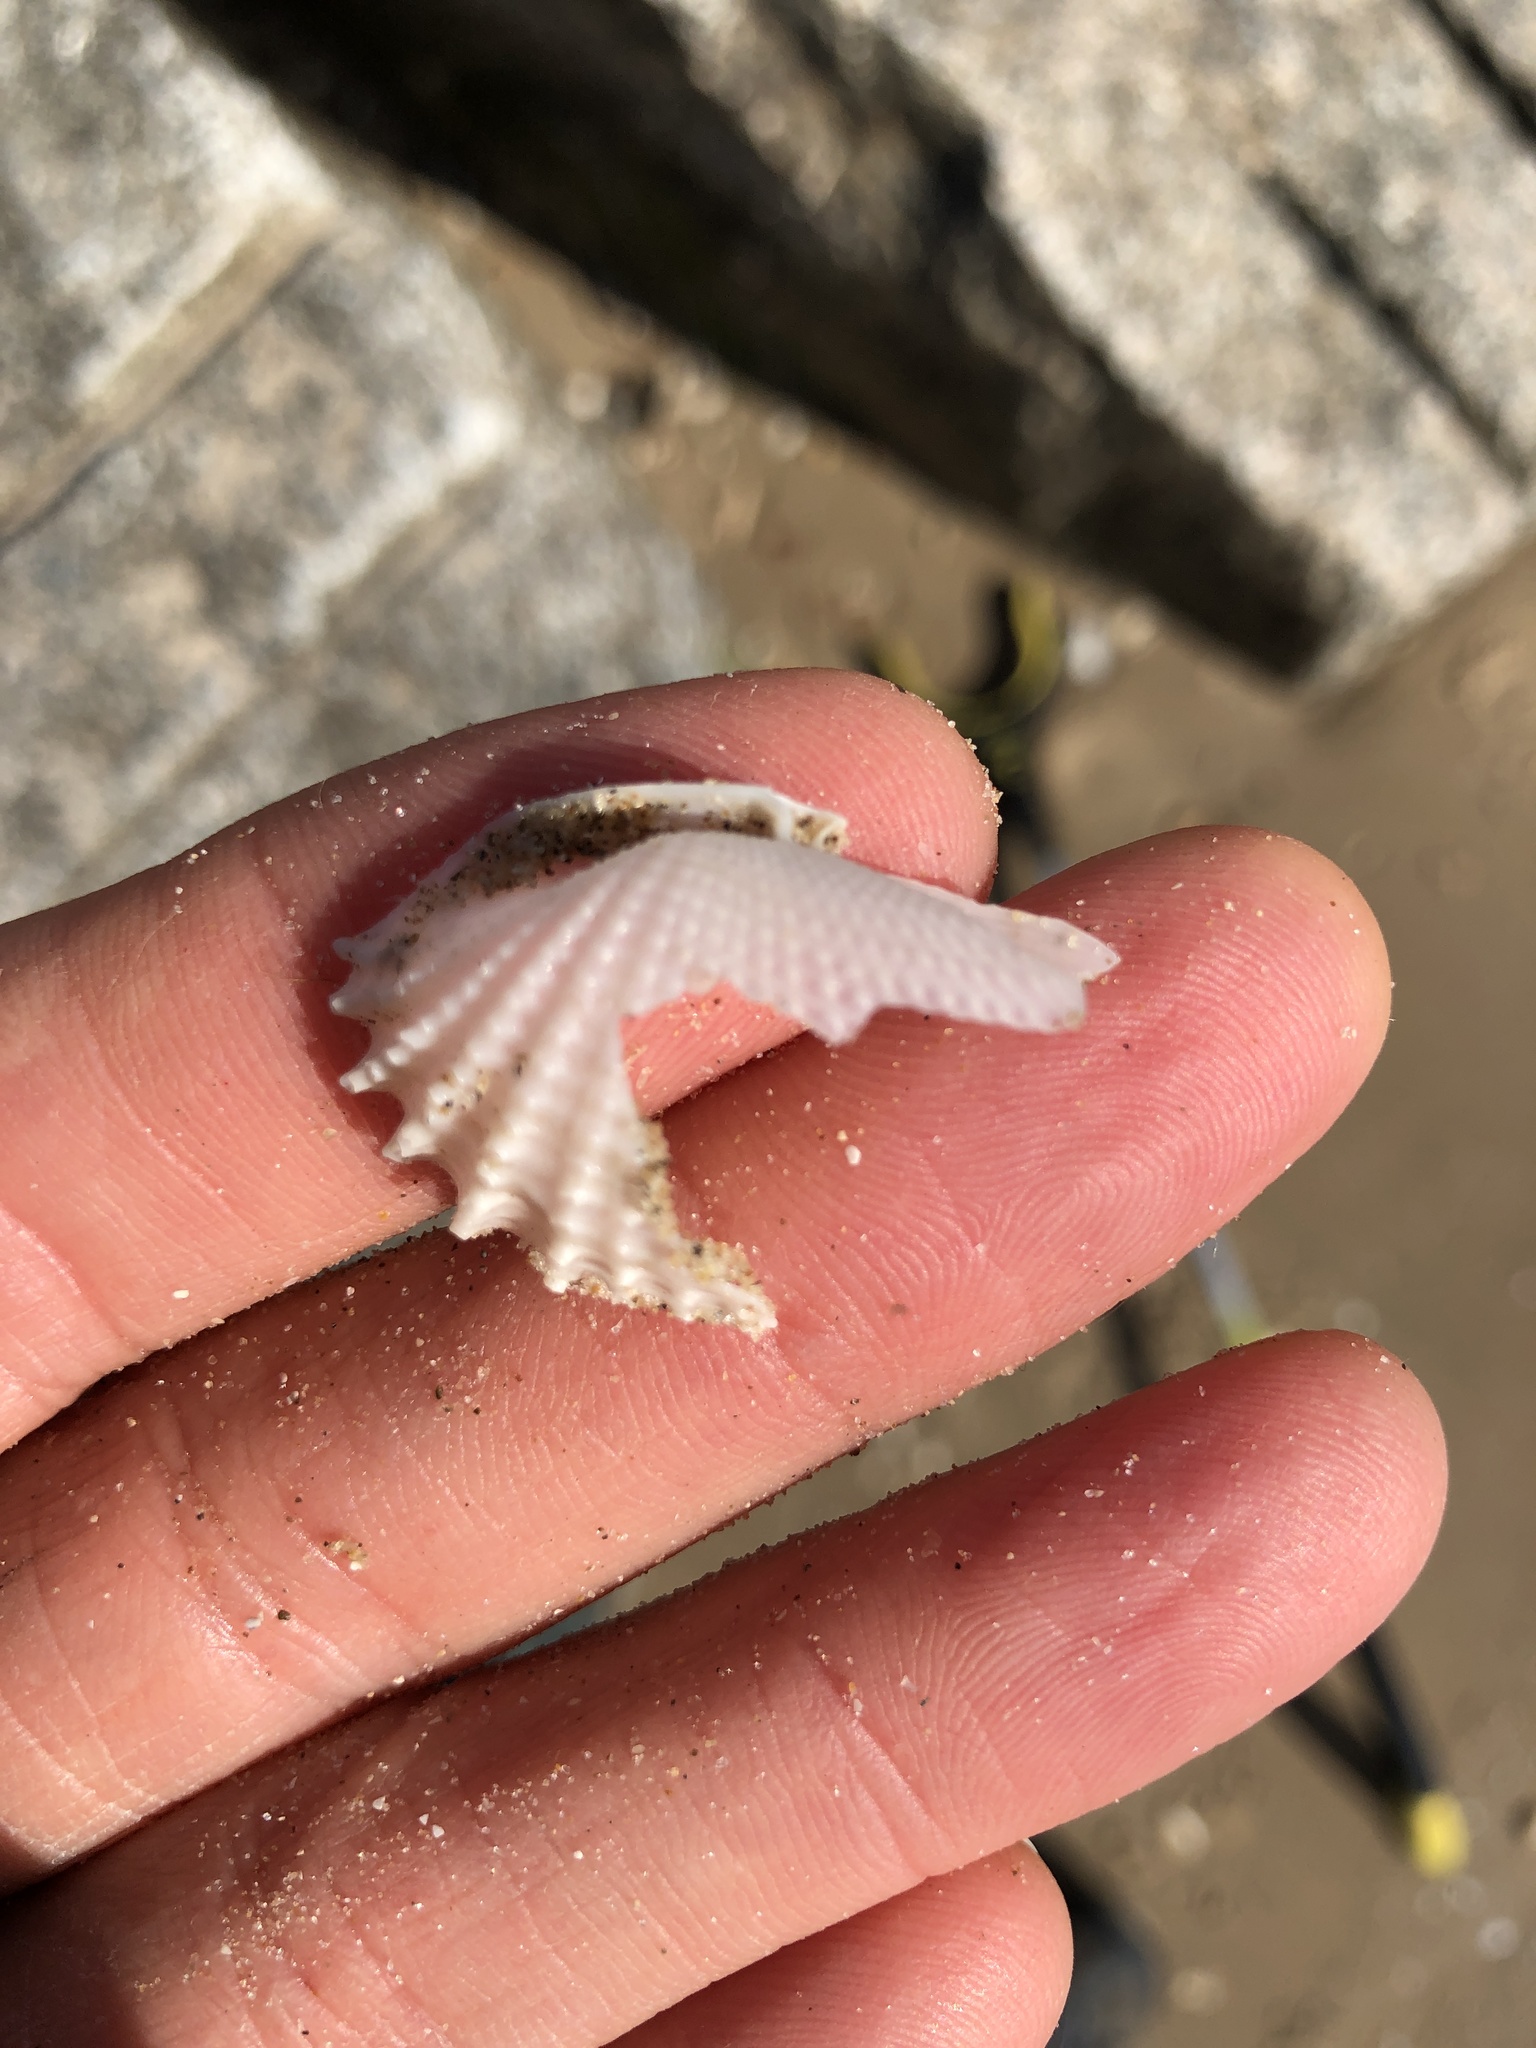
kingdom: Animalia
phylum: Mollusca
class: Bivalvia
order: Myida
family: Pholadidae
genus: Cyrtopleura
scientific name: Cyrtopleura costata
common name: Angel wing
